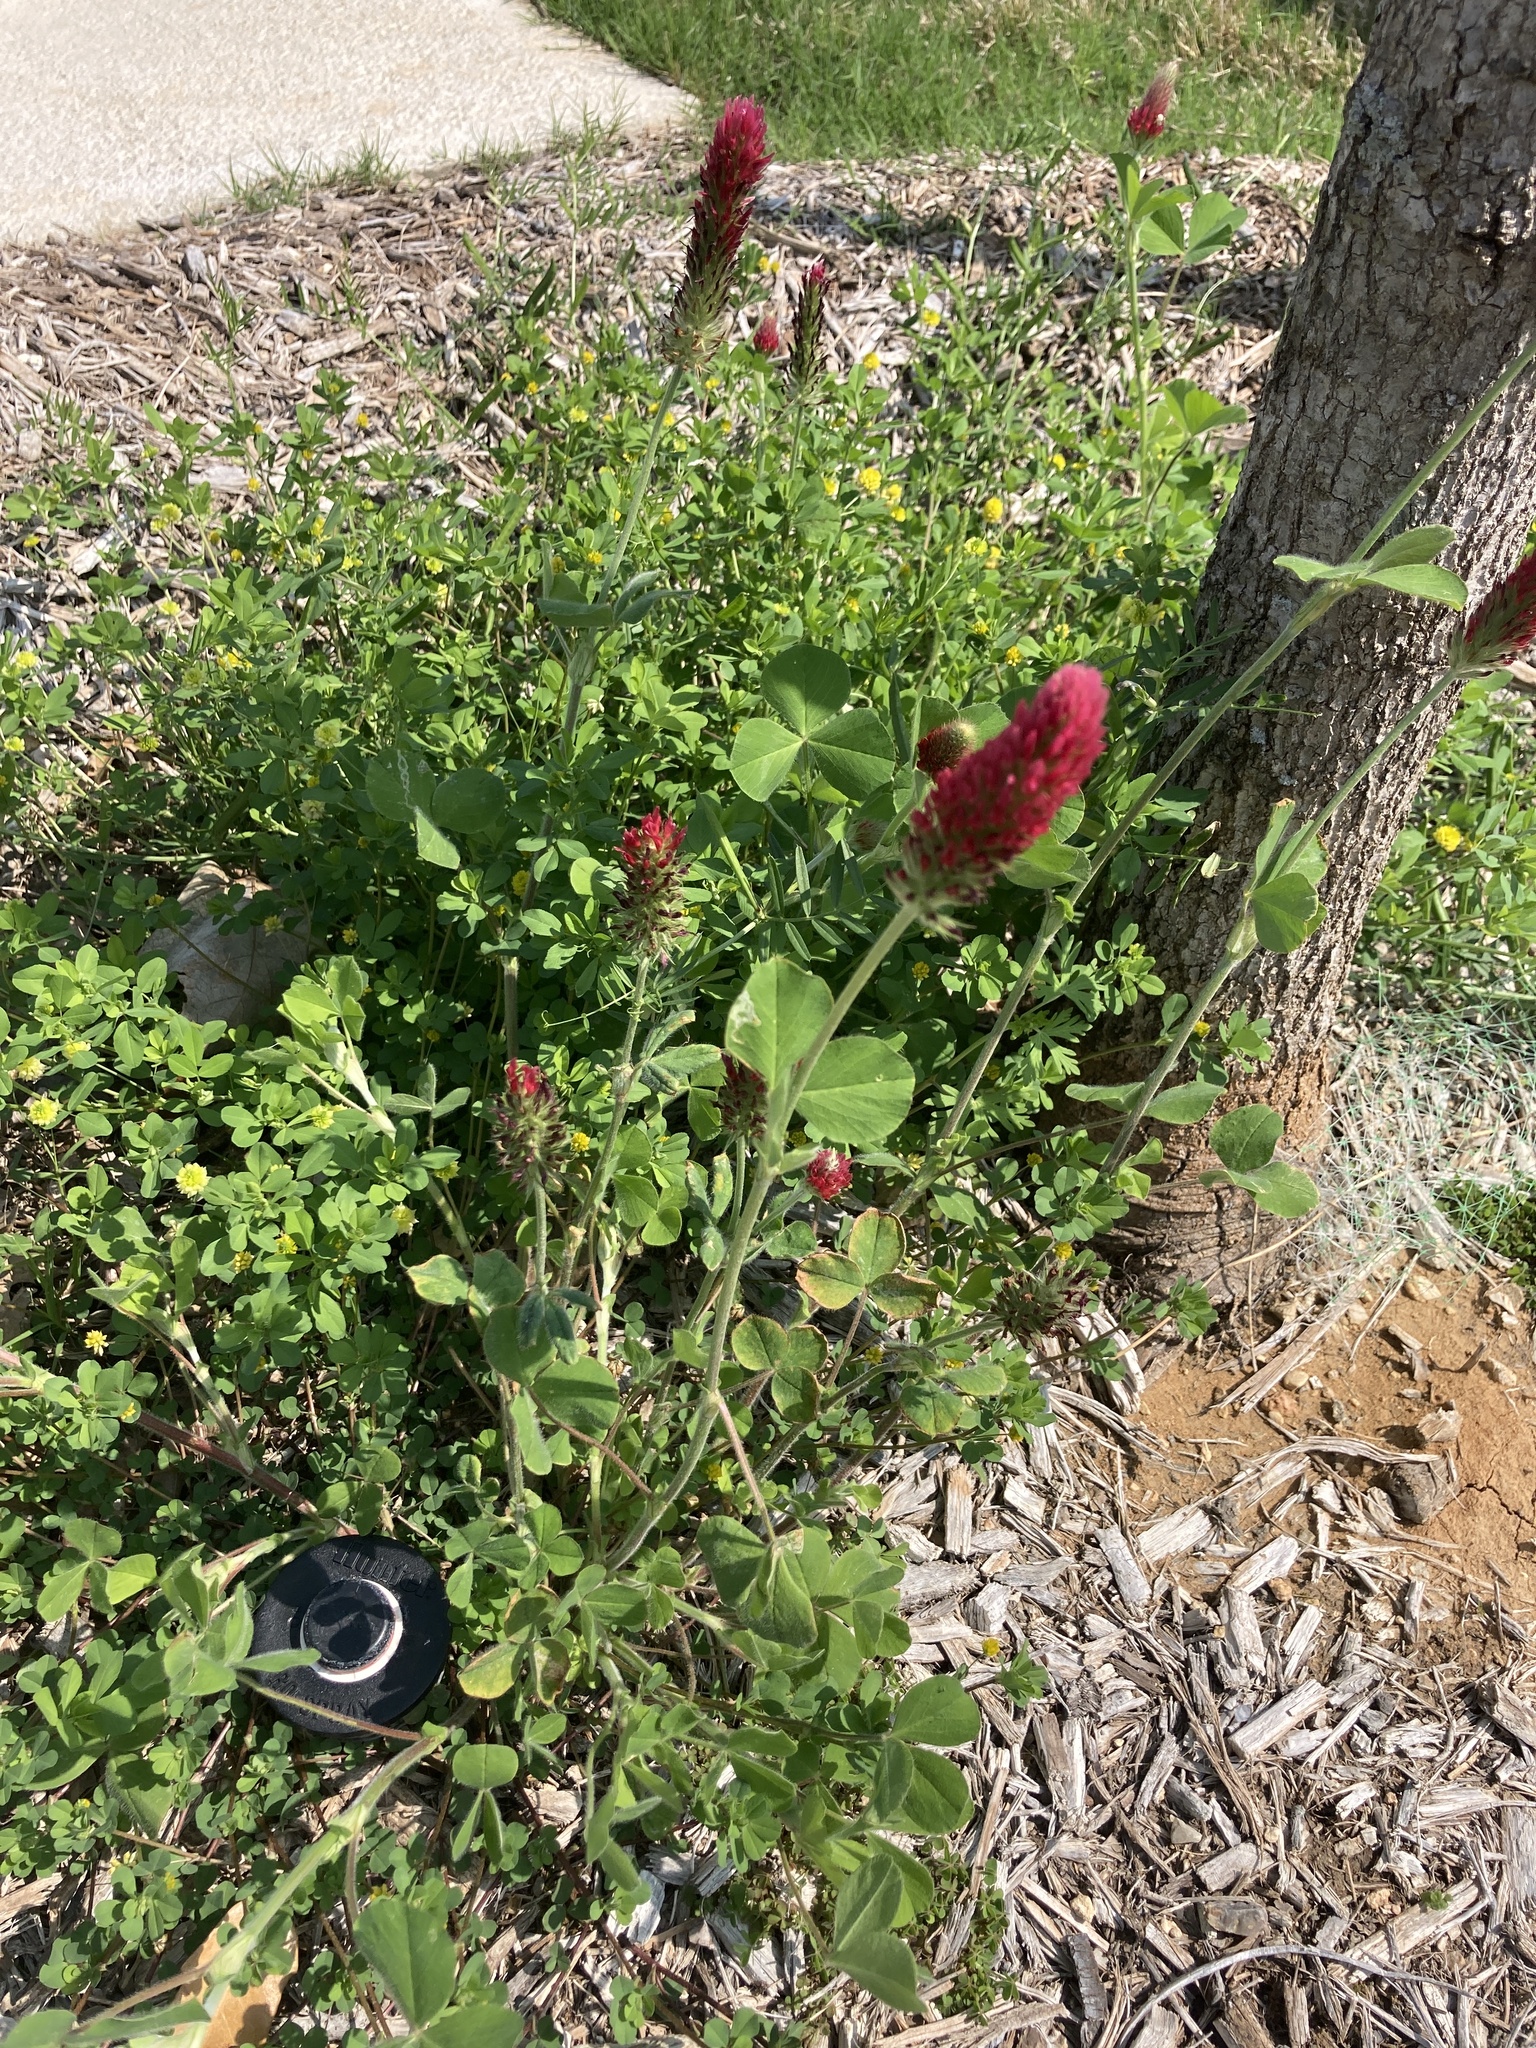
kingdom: Plantae
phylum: Tracheophyta
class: Magnoliopsida
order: Fabales
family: Fabaceae
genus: Trifolium
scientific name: Trifolium incarnatum
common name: Crimson clover
